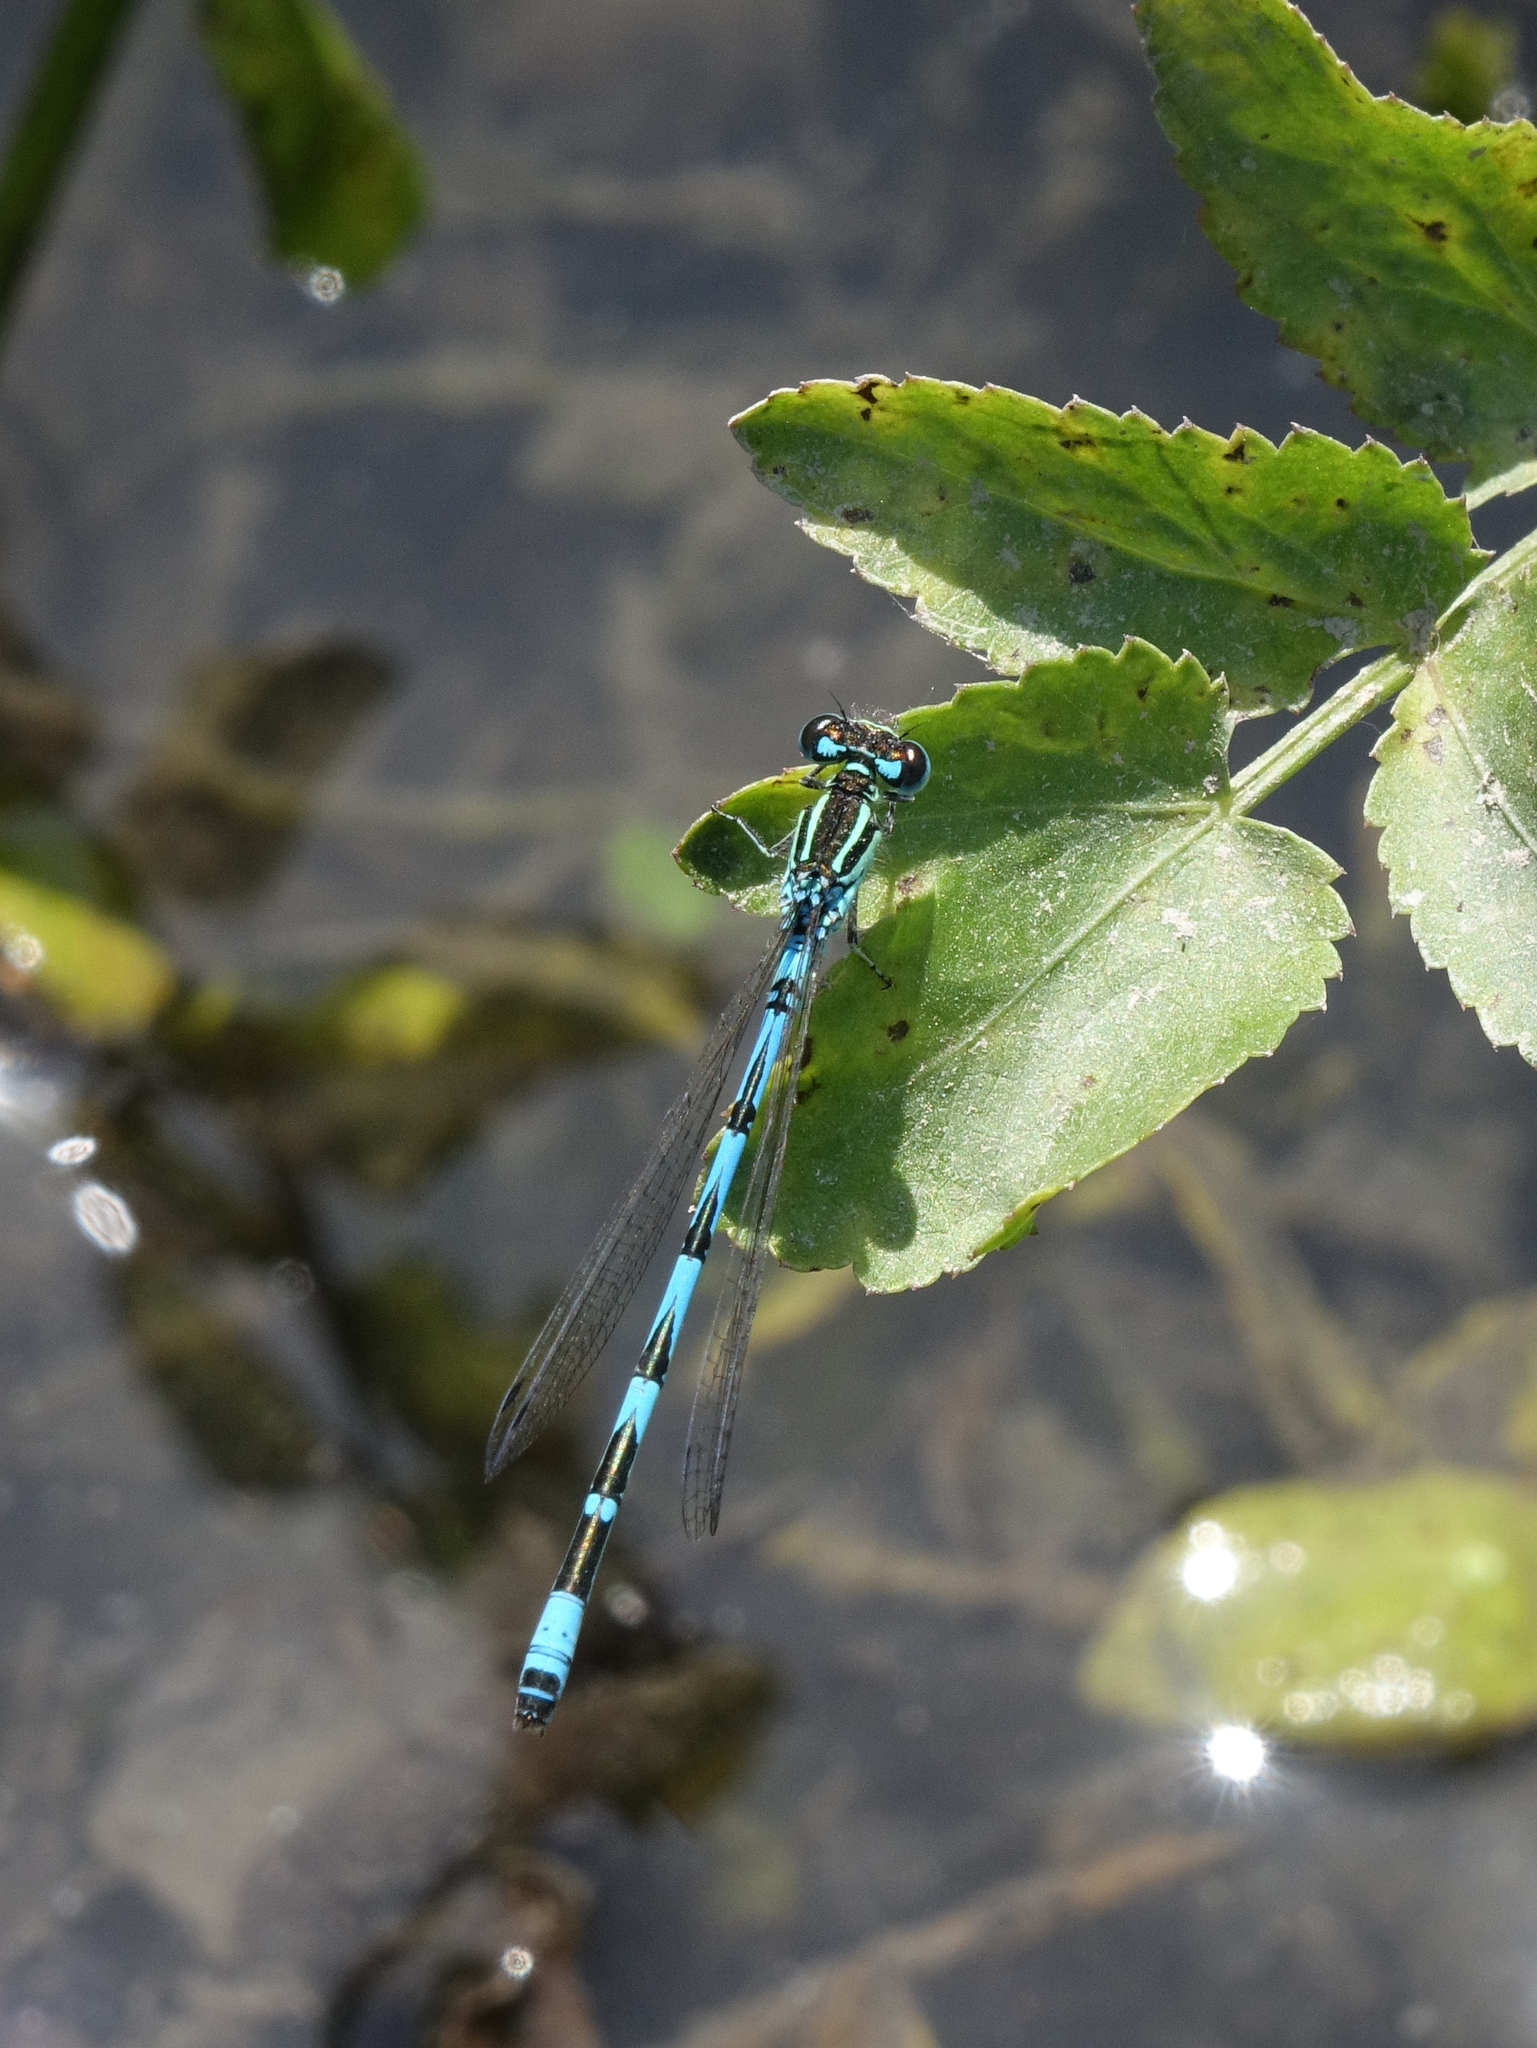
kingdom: Animalia
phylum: Arthropoda
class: Insecta
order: Odonata
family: Coenagrionidae
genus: Coenagrion
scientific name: Coenagrion ornatum
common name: Ornate bluet
